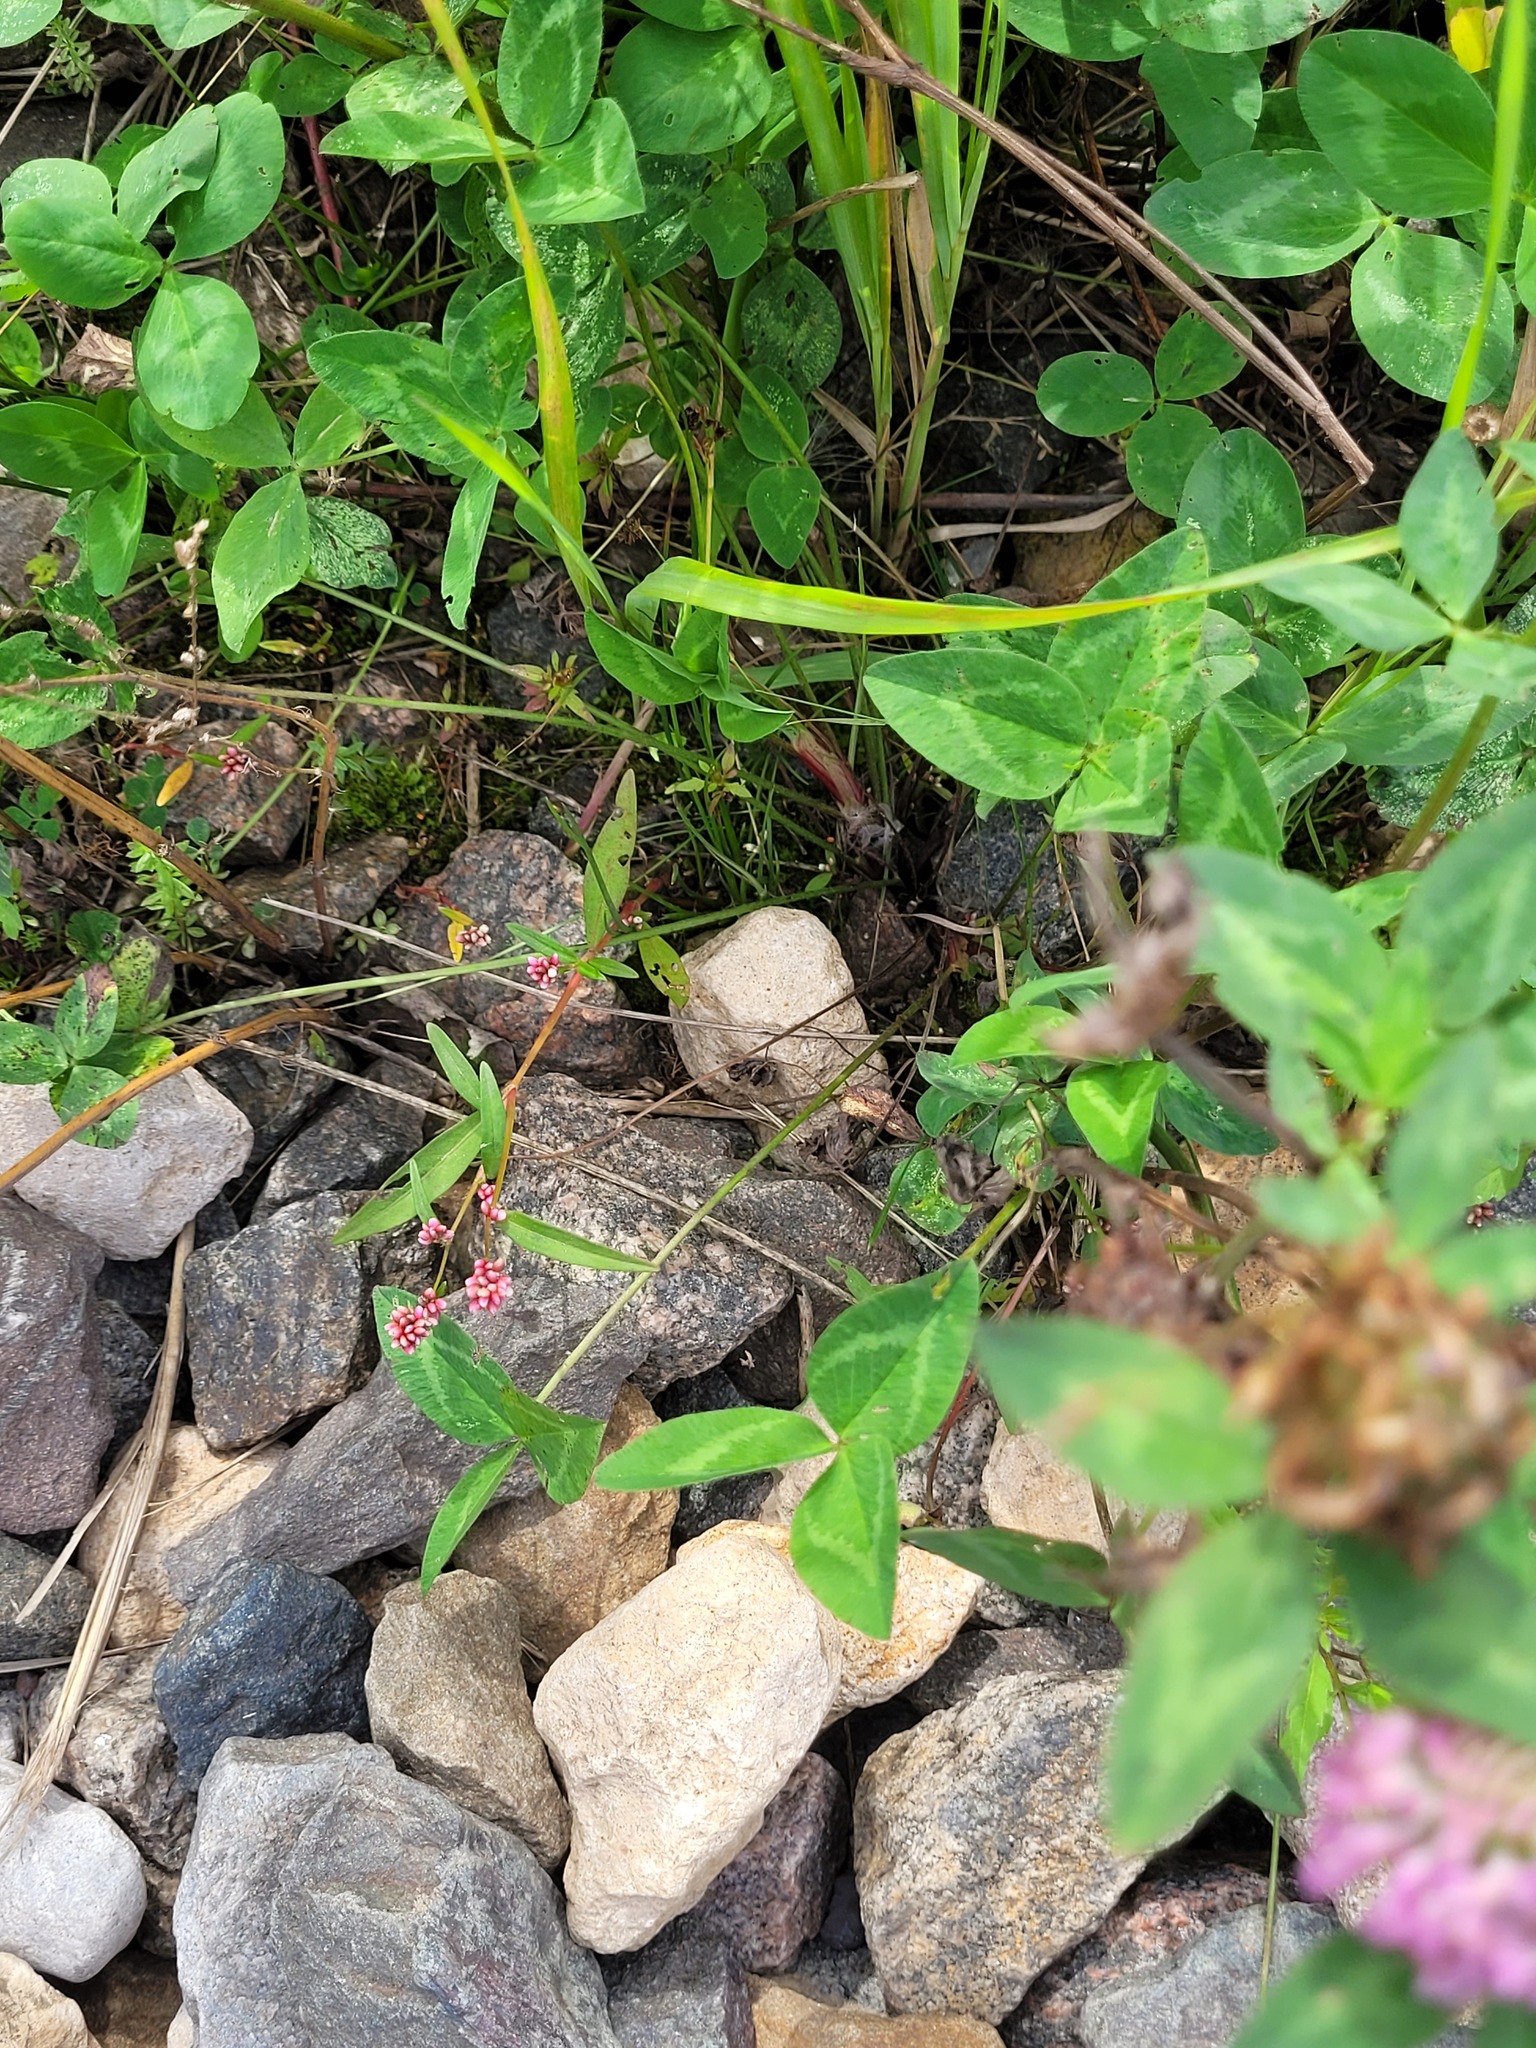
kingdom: Plantae
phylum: Tracheophyta
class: Magnoliopsida
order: Caryophyllales
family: Polygonaceae
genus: Persicaria
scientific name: Persicaria maculosa
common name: Redshank
